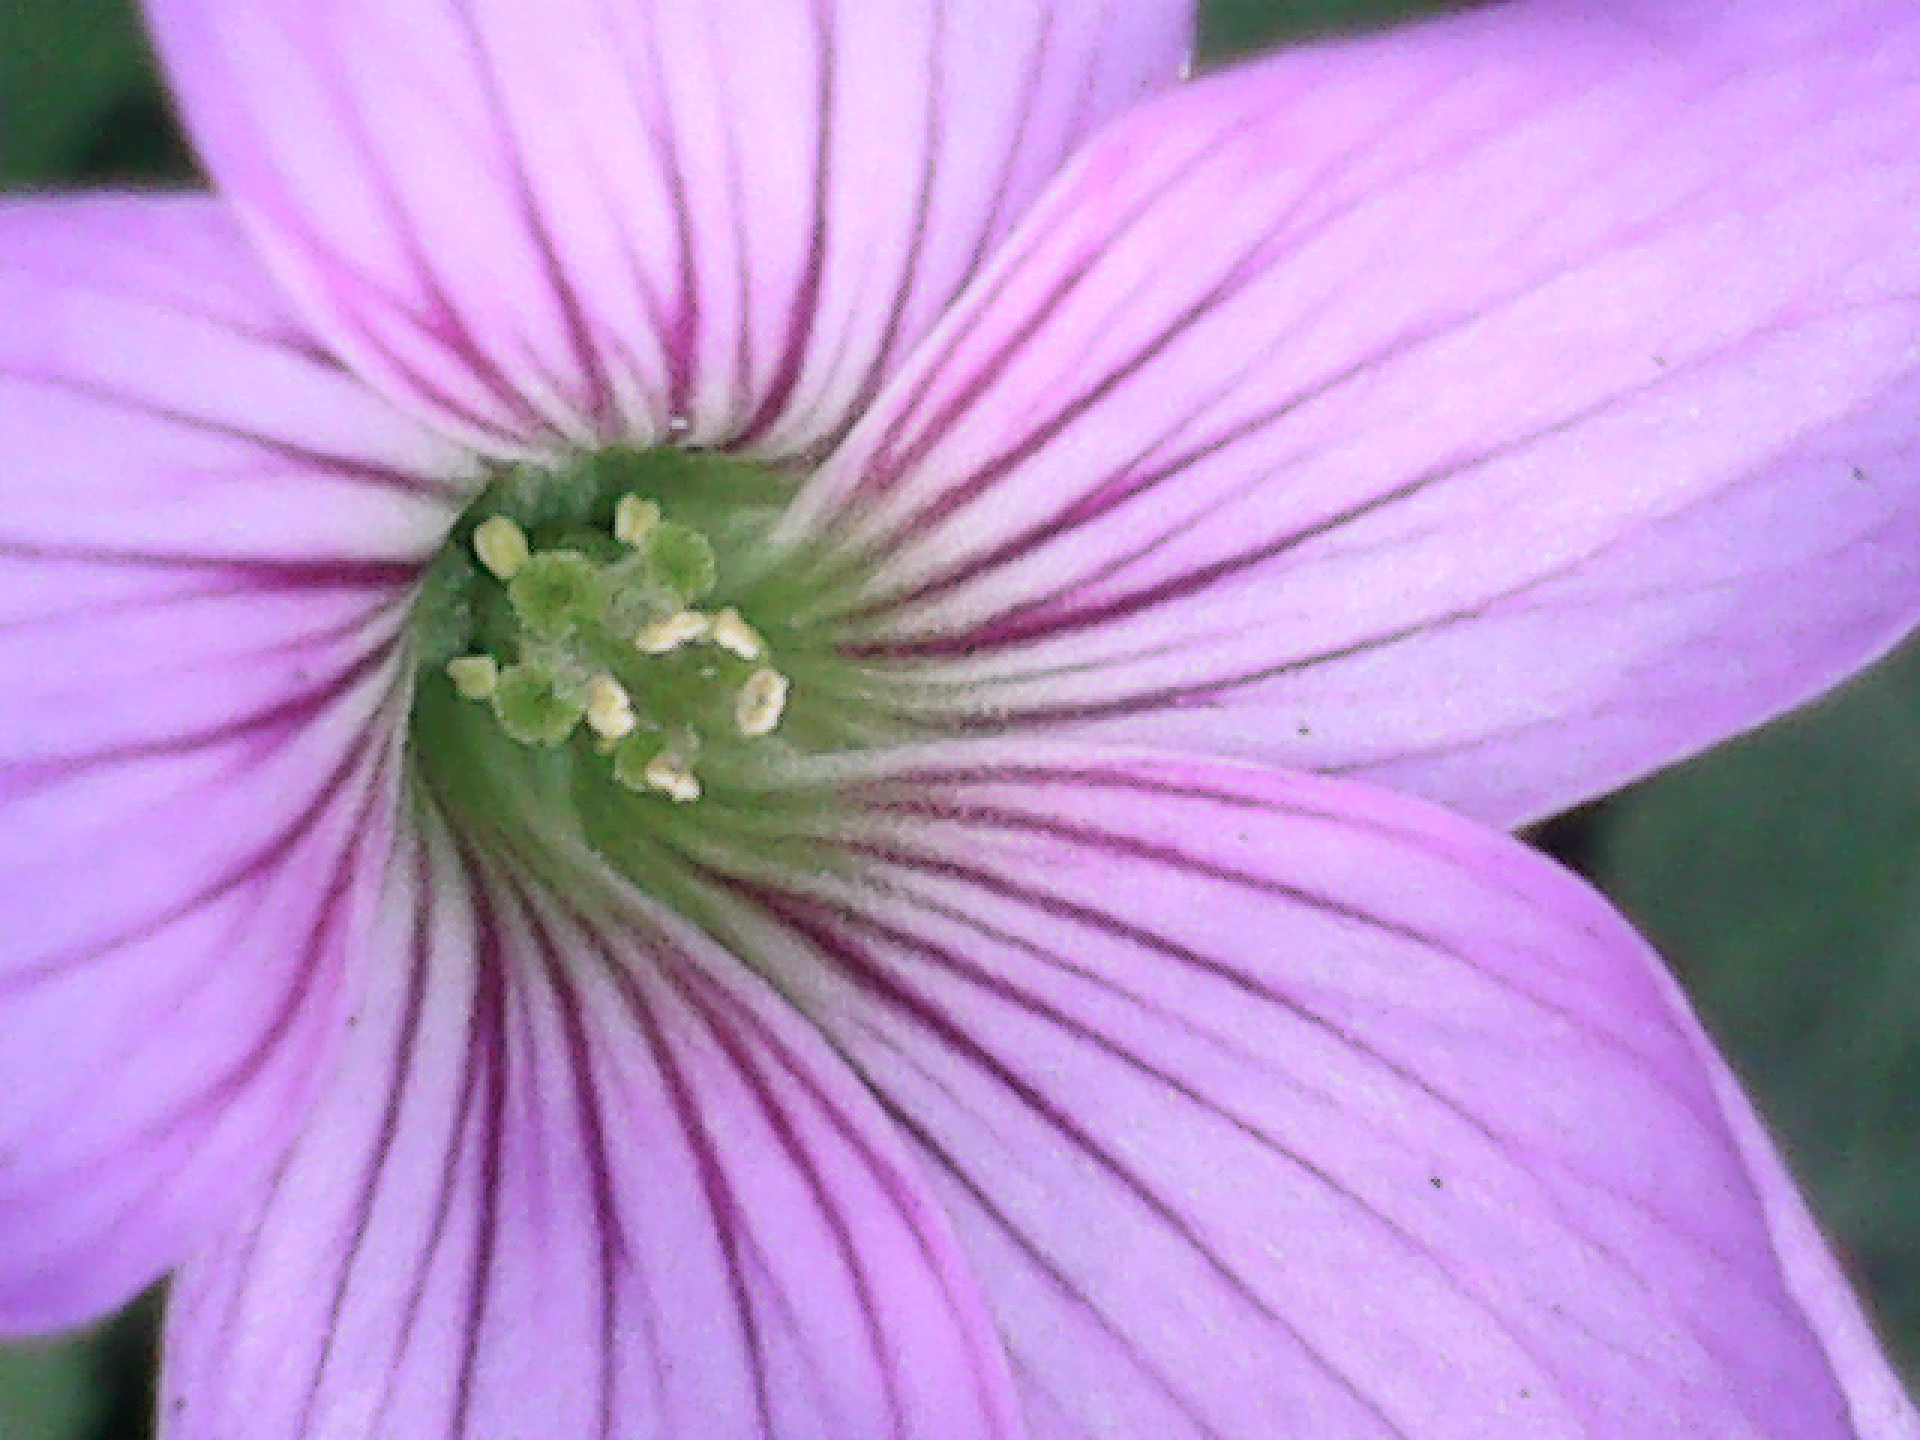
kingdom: Plantae
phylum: Tracheophyta
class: Magnoliopsida
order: Oxalidales
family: Oxalidaceae
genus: Oxalis
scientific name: Oxalis debilis
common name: Large-flowered pink-sorrel
